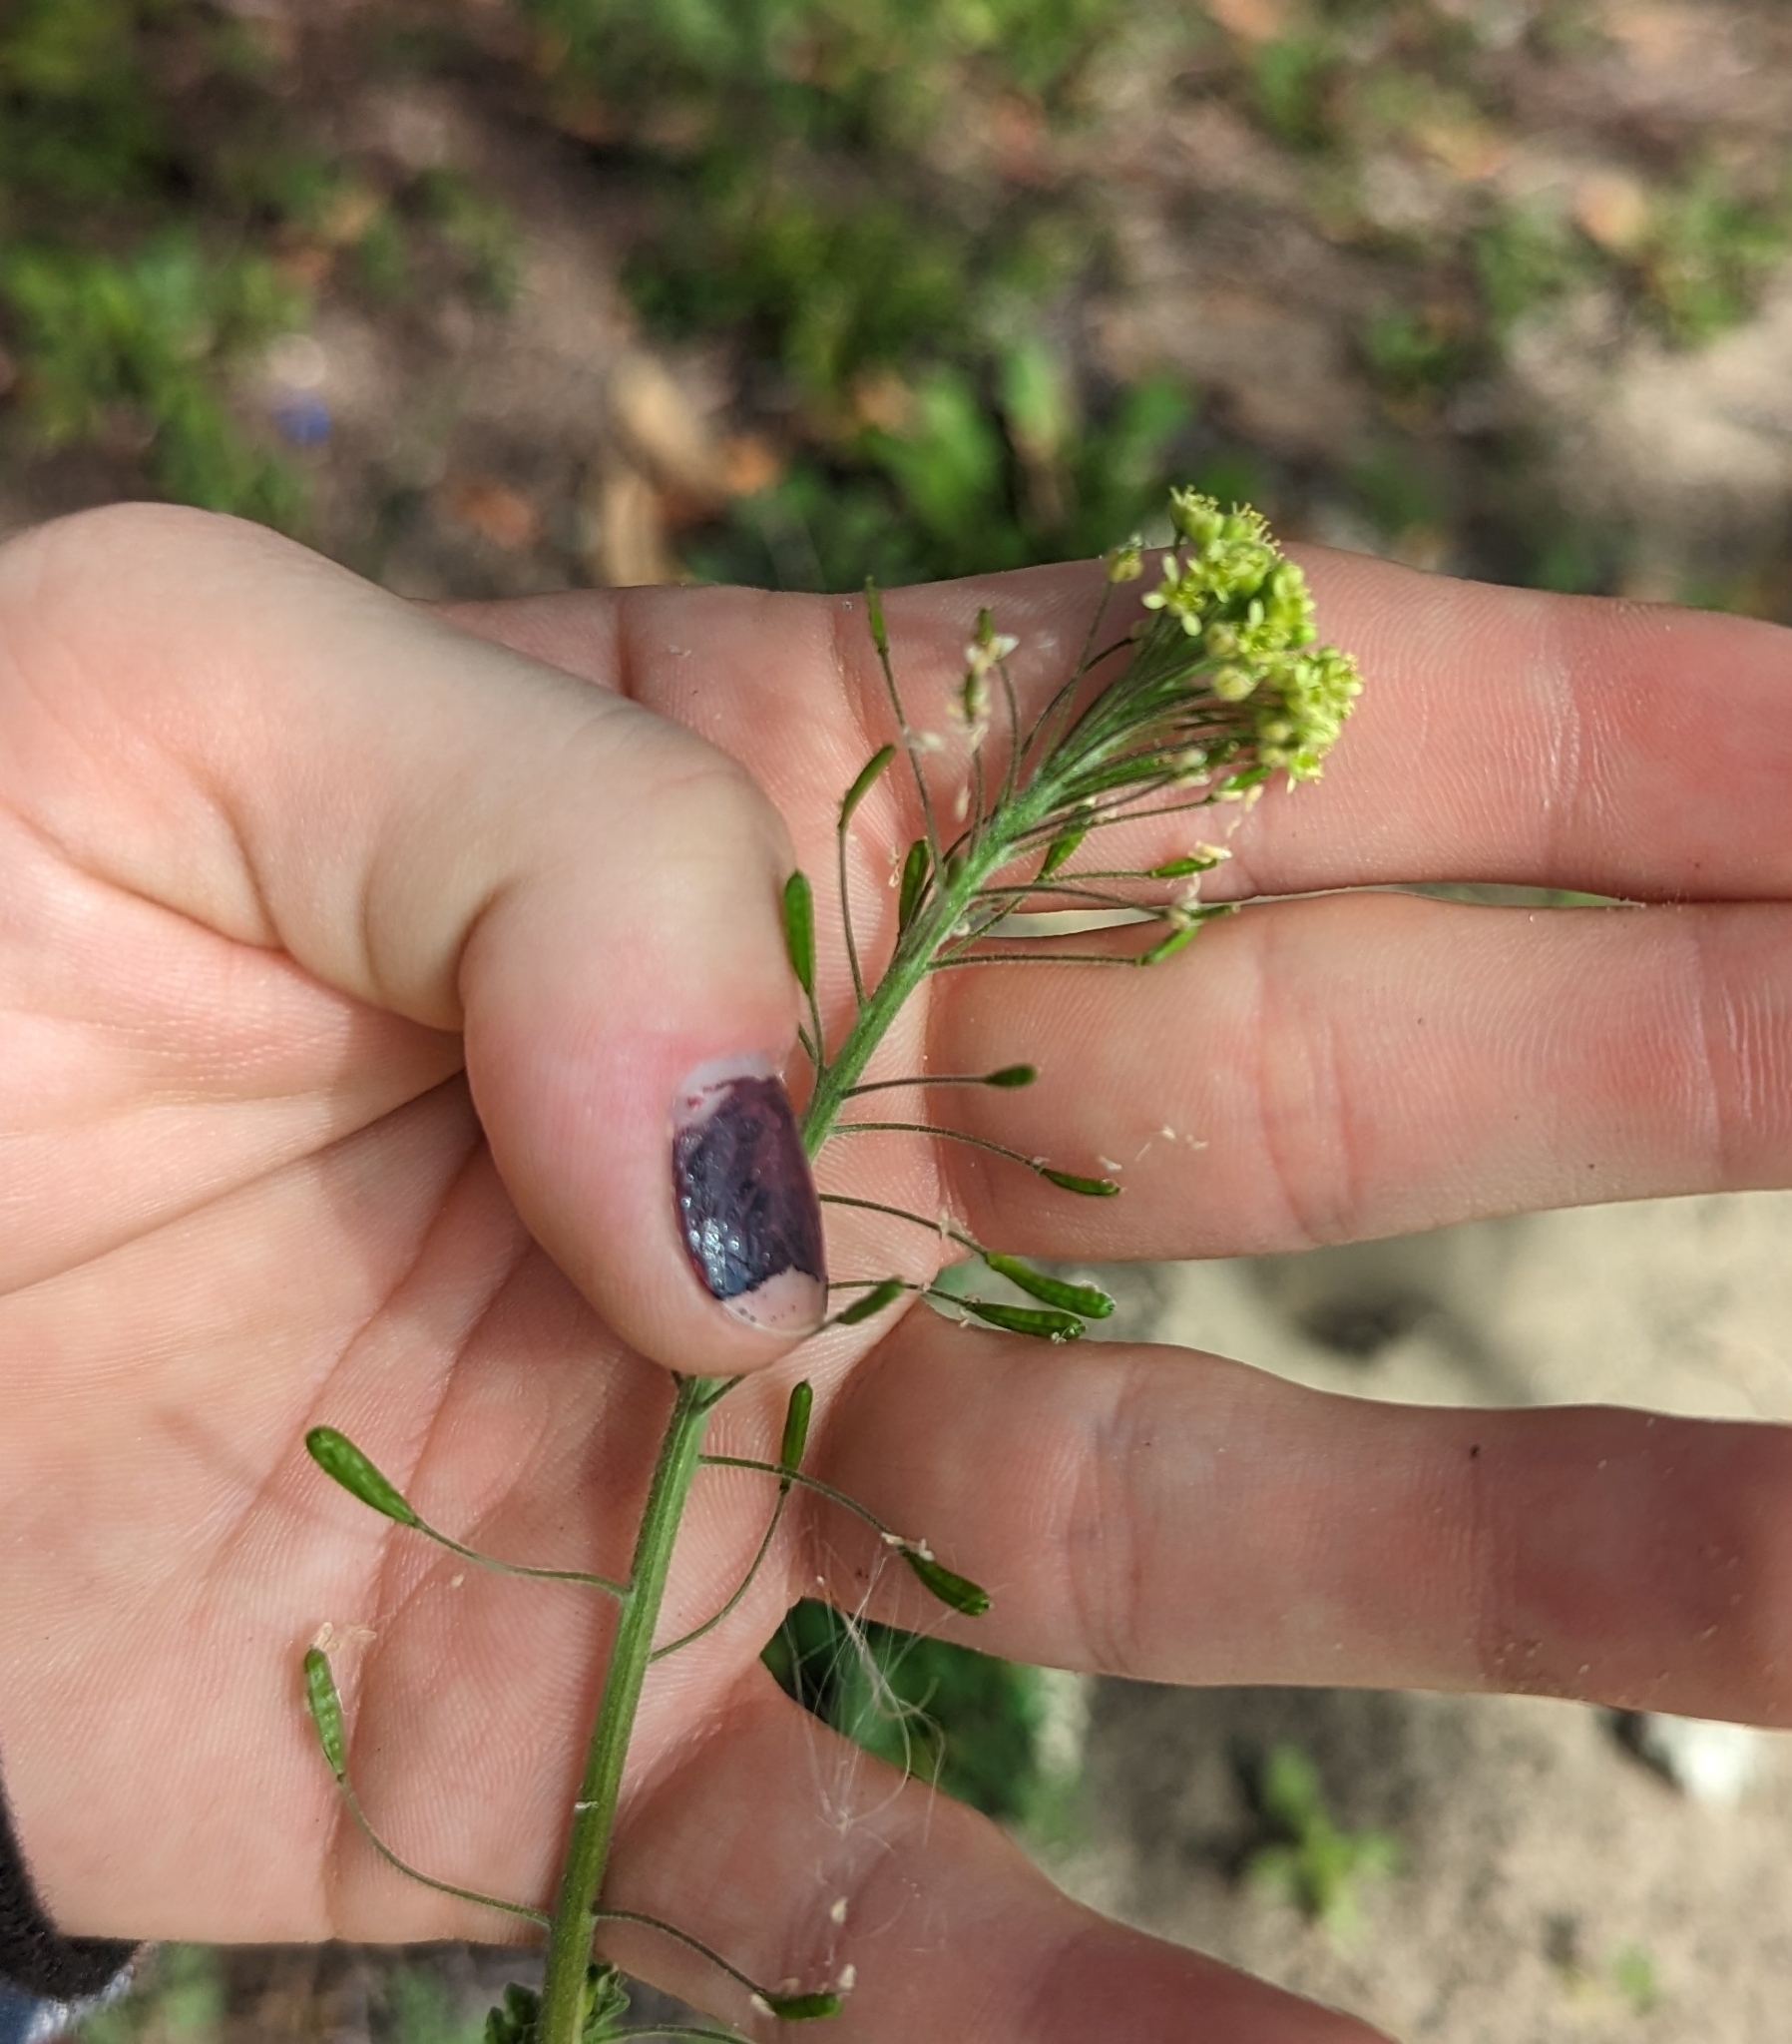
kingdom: Plantae
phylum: Tracheophyta
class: Magnoliopsida
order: Brassicales
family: Brassicaceae
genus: Descurainia
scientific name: Descurainia pinnata
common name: Western tansy mustard
